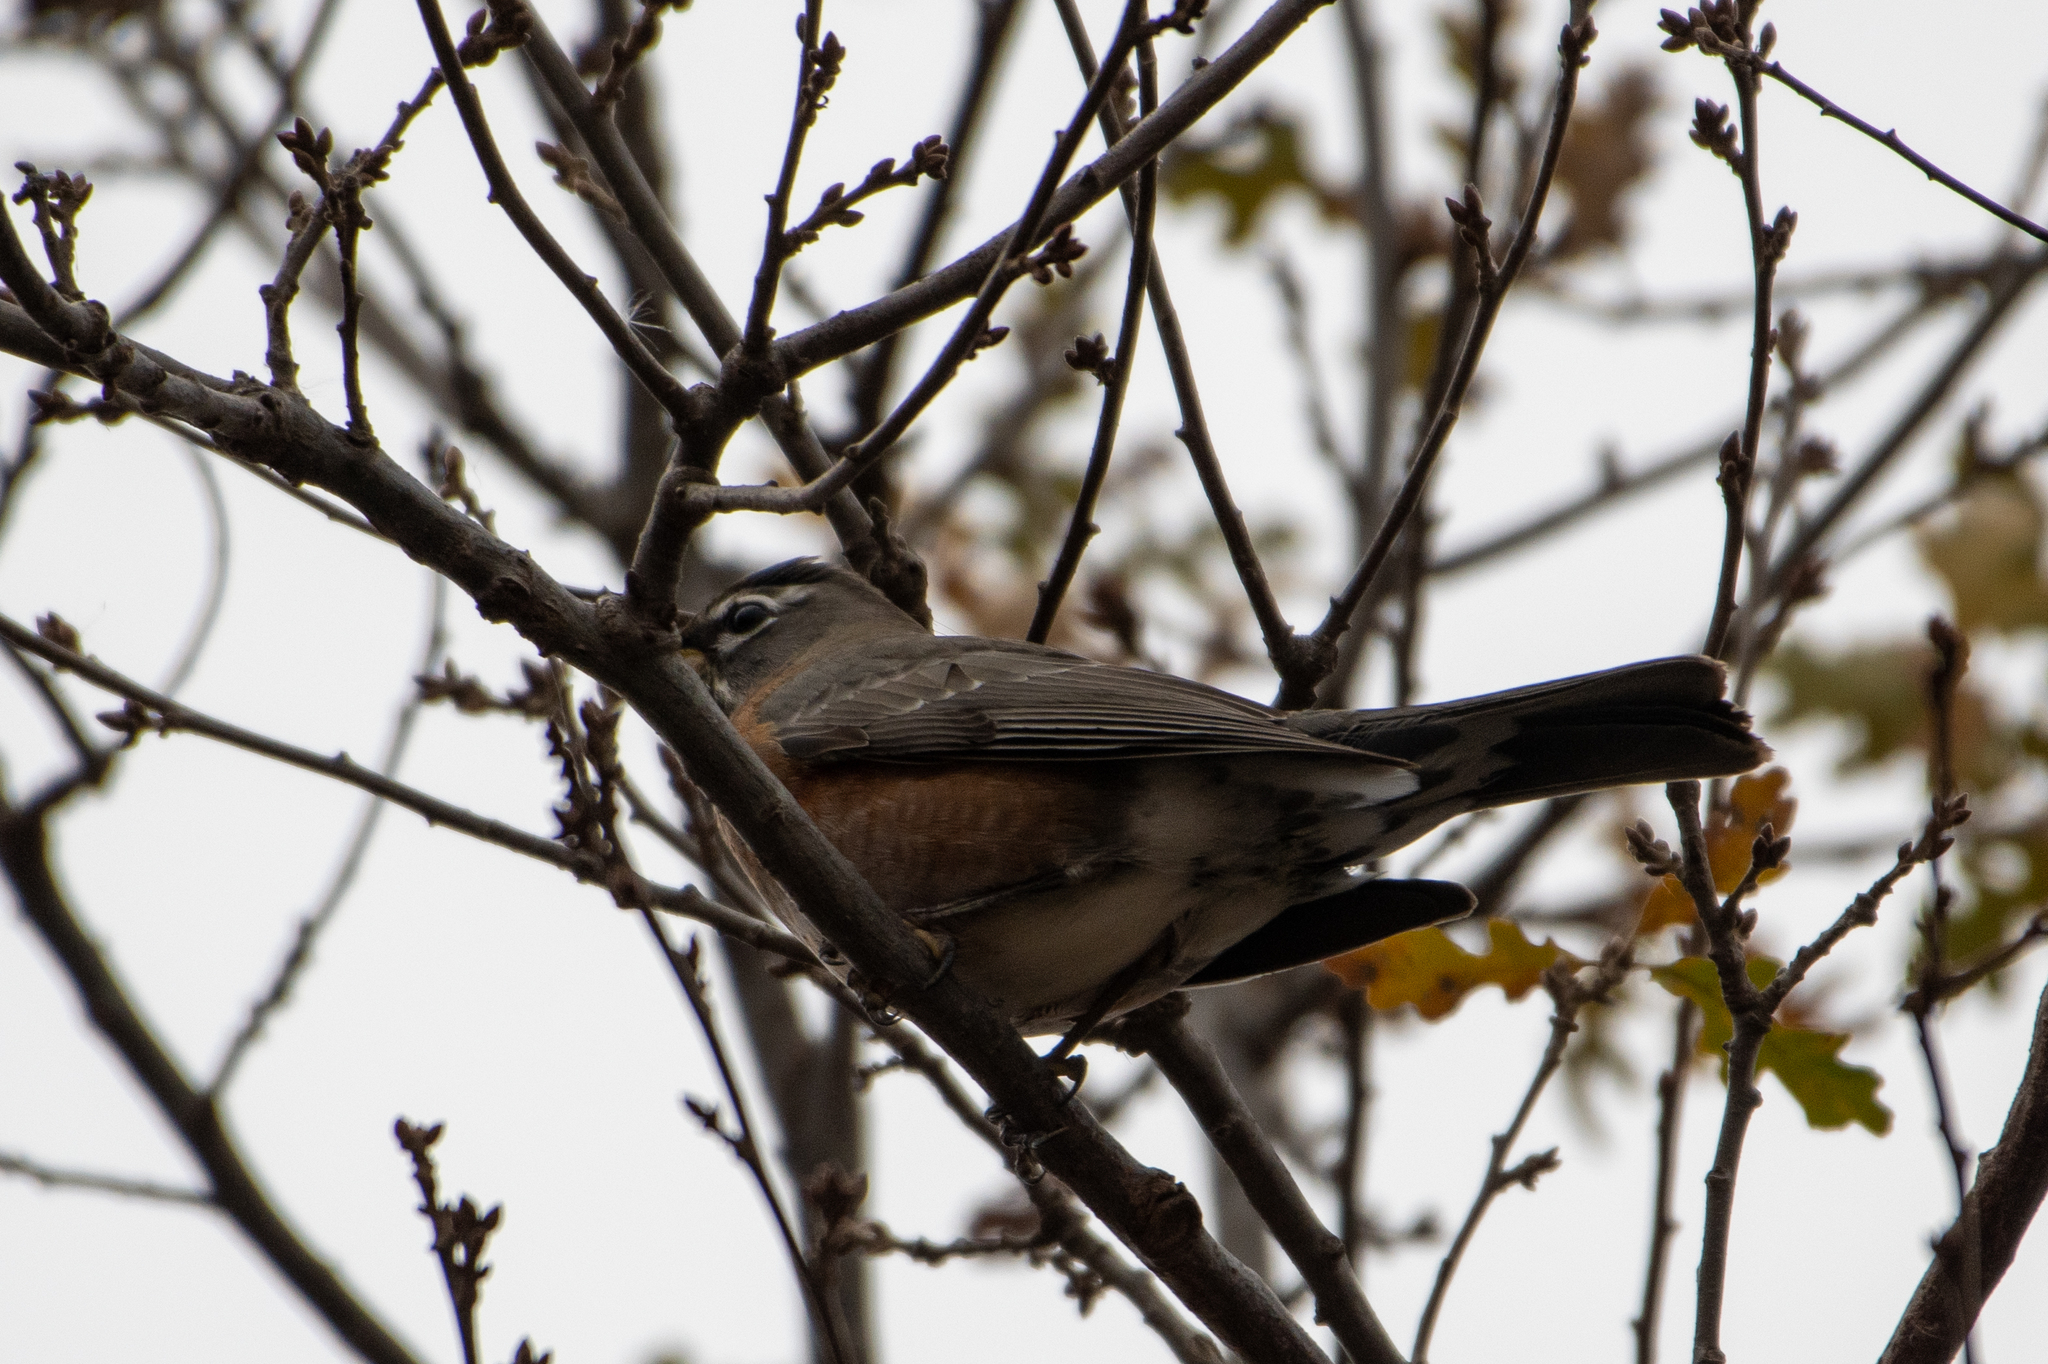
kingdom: Animalia
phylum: Chordata
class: Aves
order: Passeriformes
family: Turdidae
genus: Turdus
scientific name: Turdus migratorius
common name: American robin
